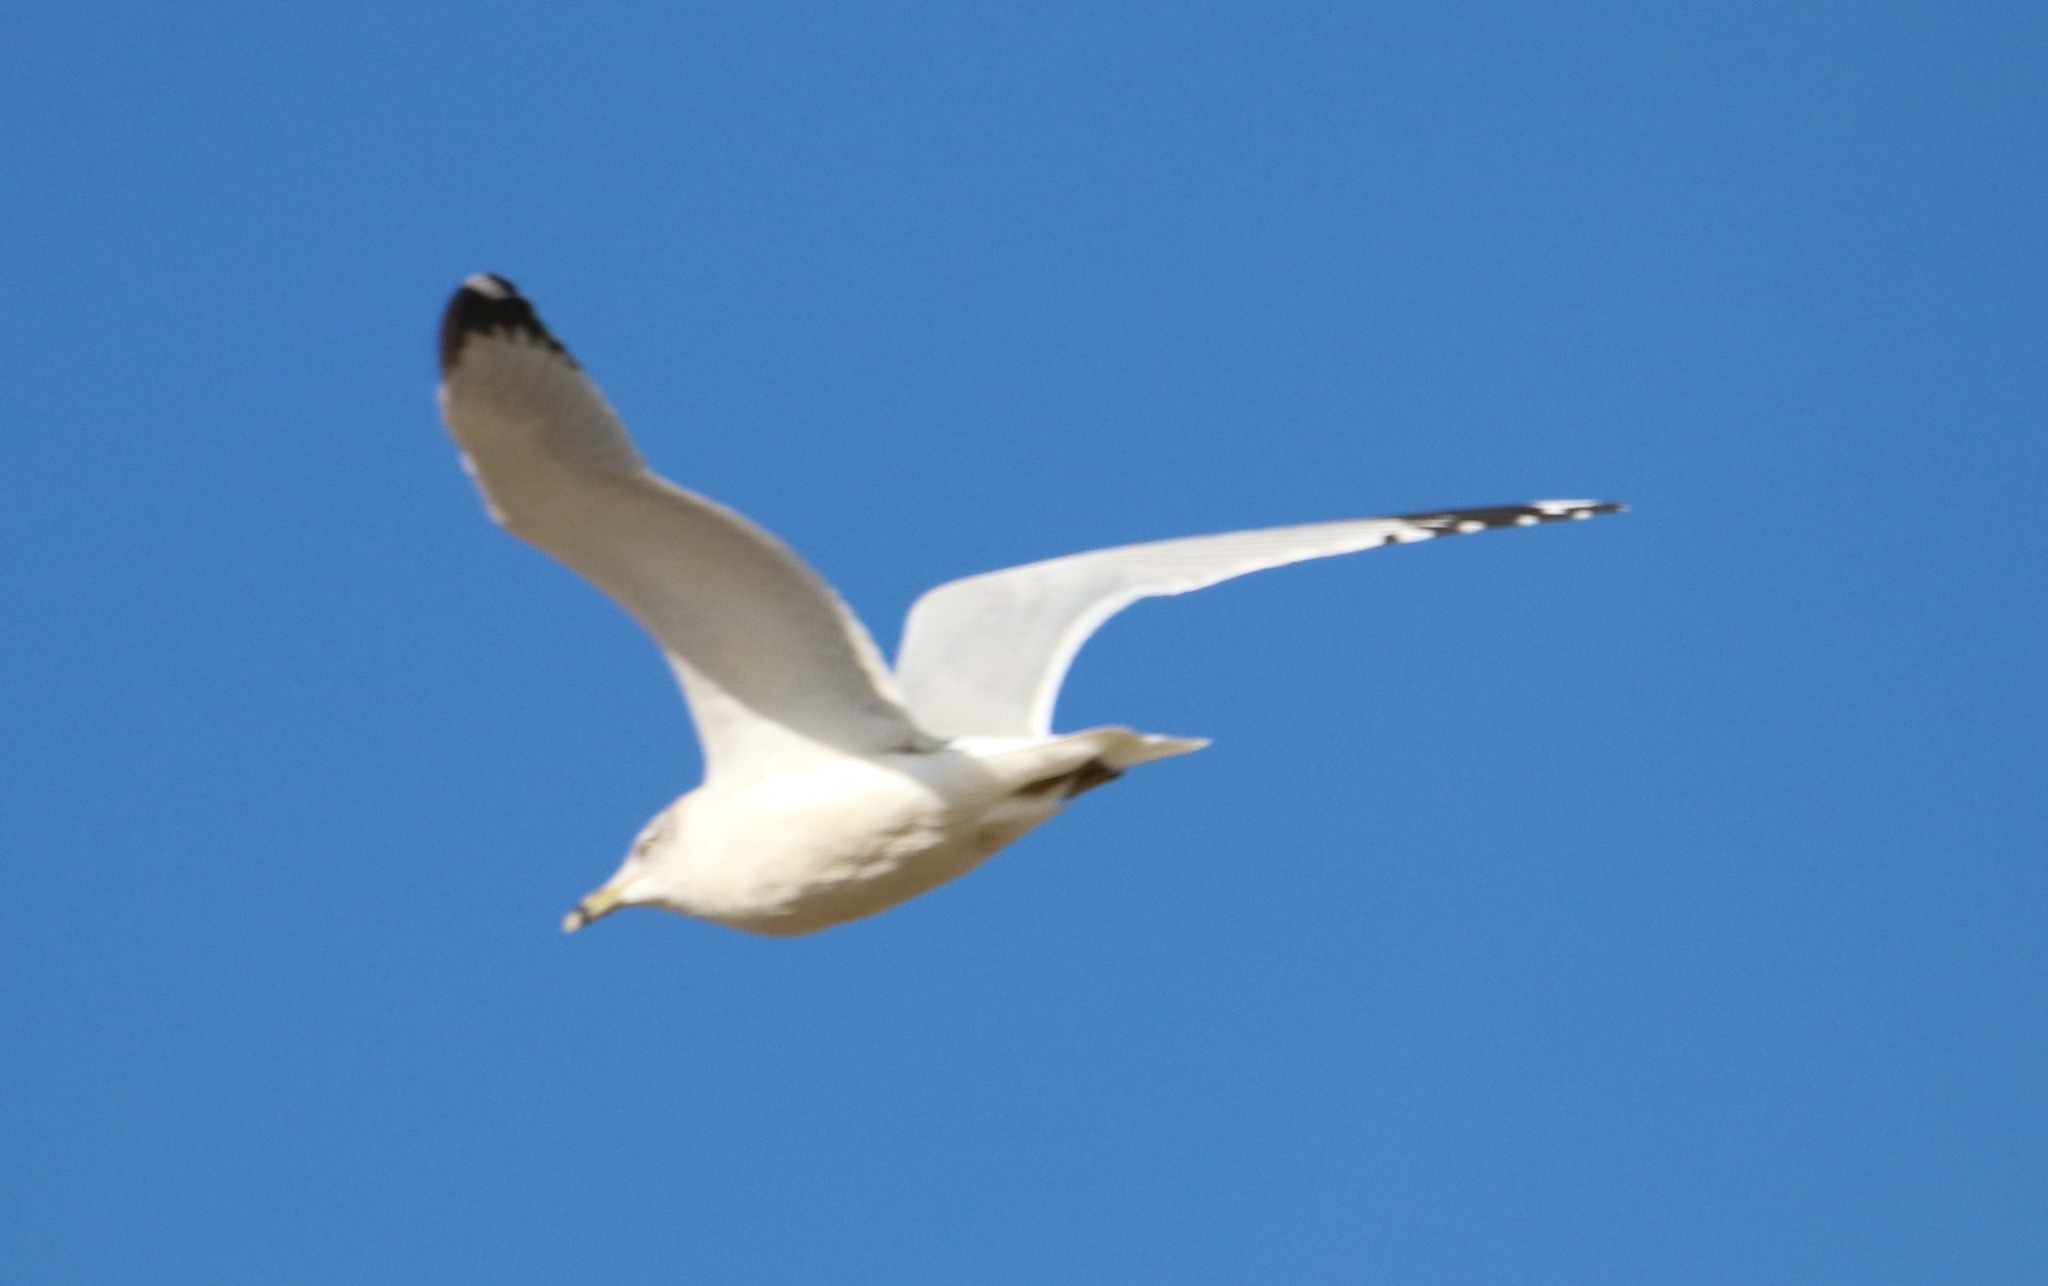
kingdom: Animalia
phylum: Chordata
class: Aves
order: Charadriiformes
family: Laridae
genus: Larus
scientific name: Larus delawarensis
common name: Ring-billed gull
